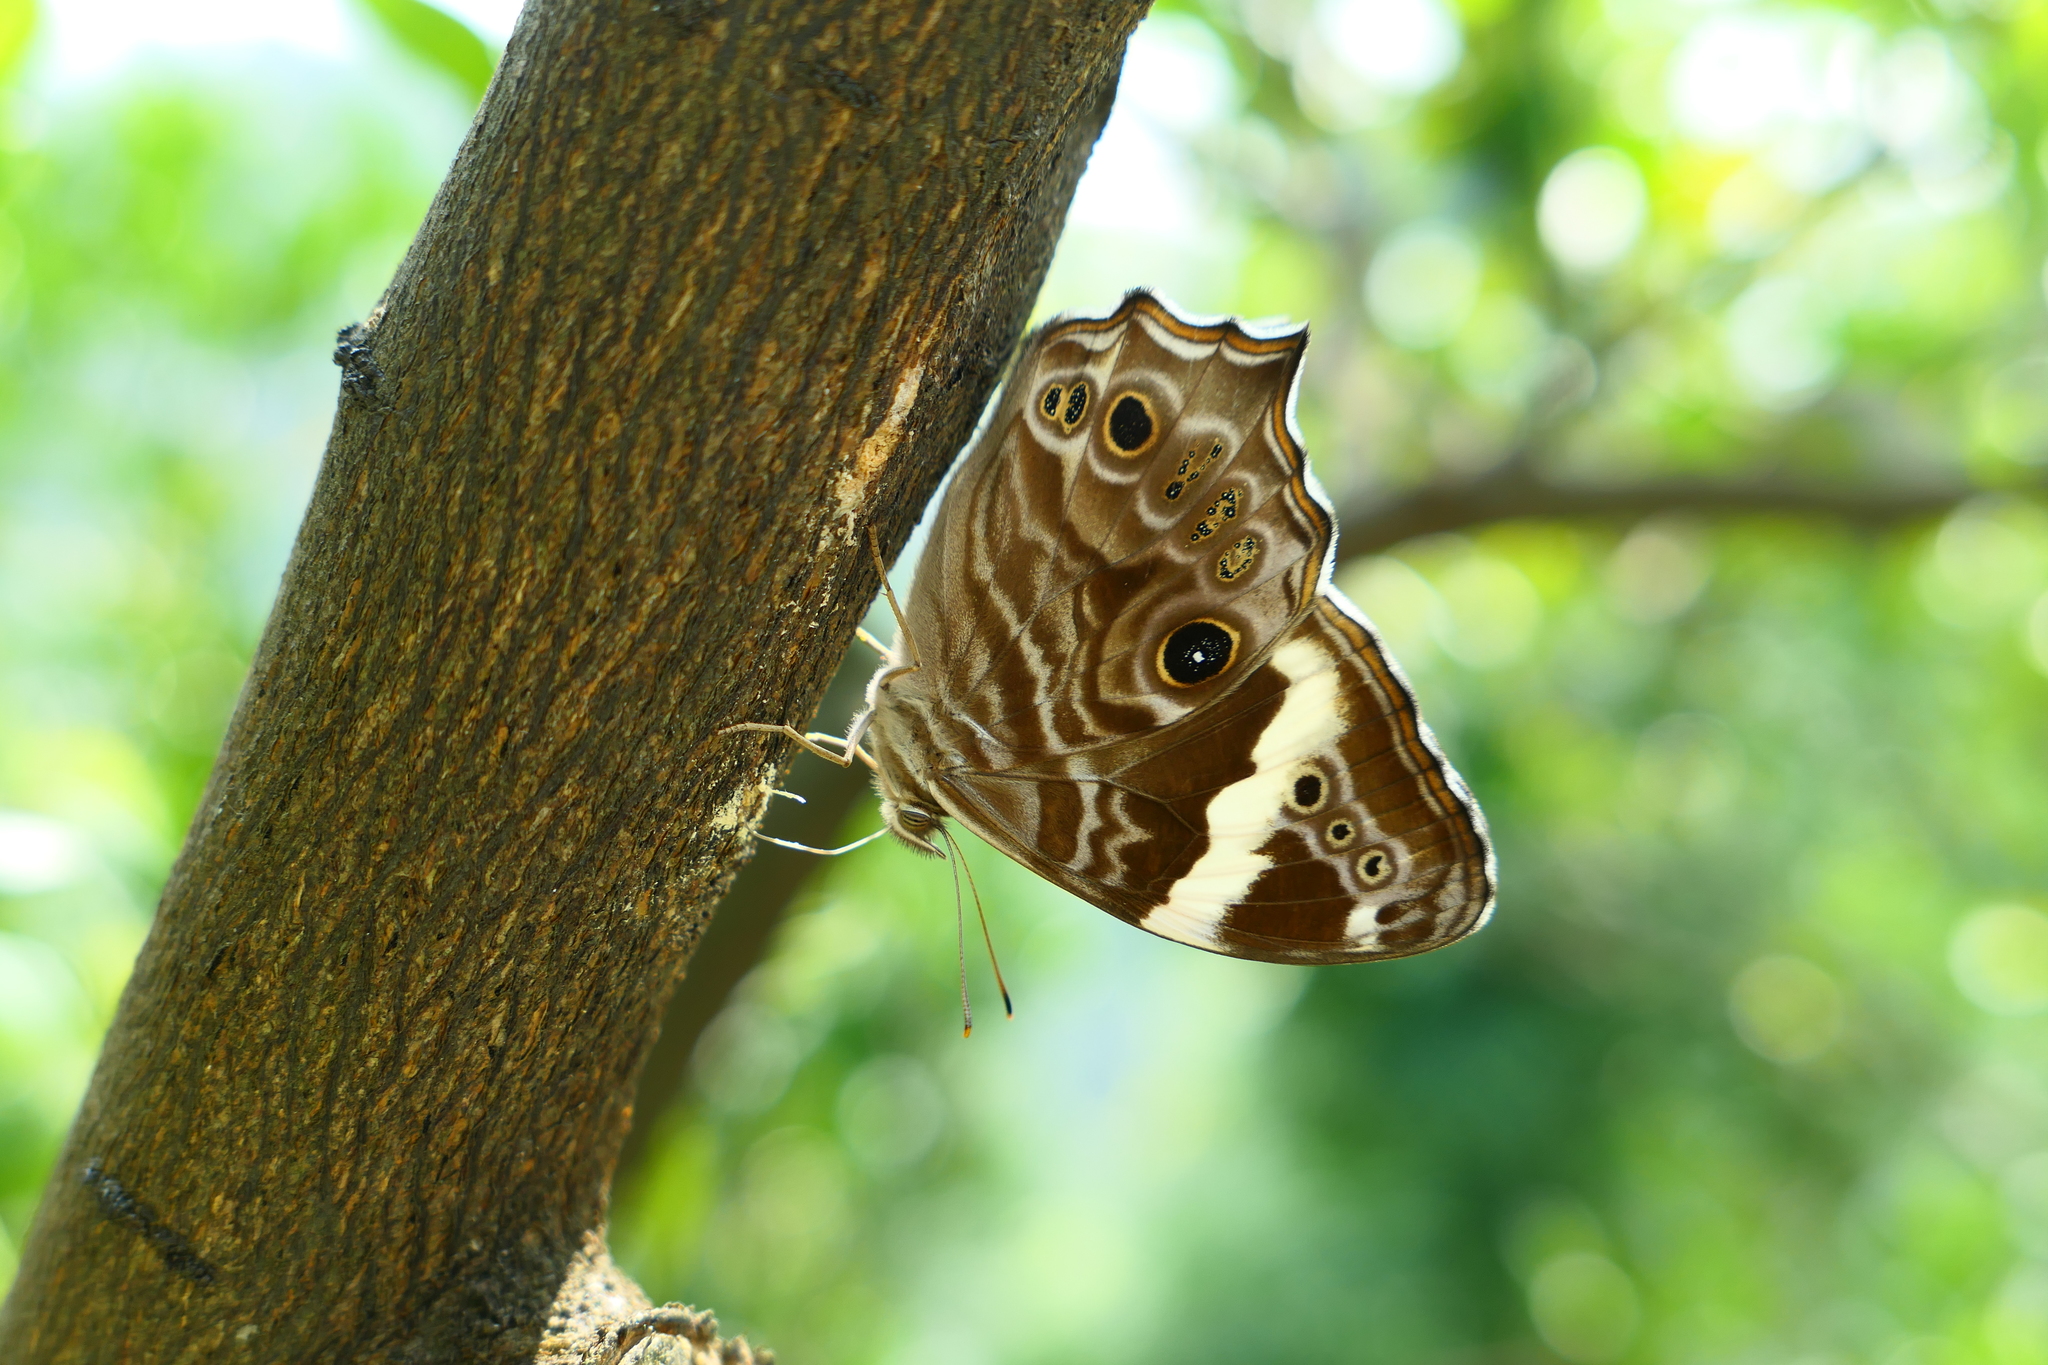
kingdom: Animalia
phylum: Arthropoda
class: Insecta
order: Lepidoptera
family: Nymphalidae
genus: Lethe
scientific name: Lethe rohria
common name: Common treebrown
